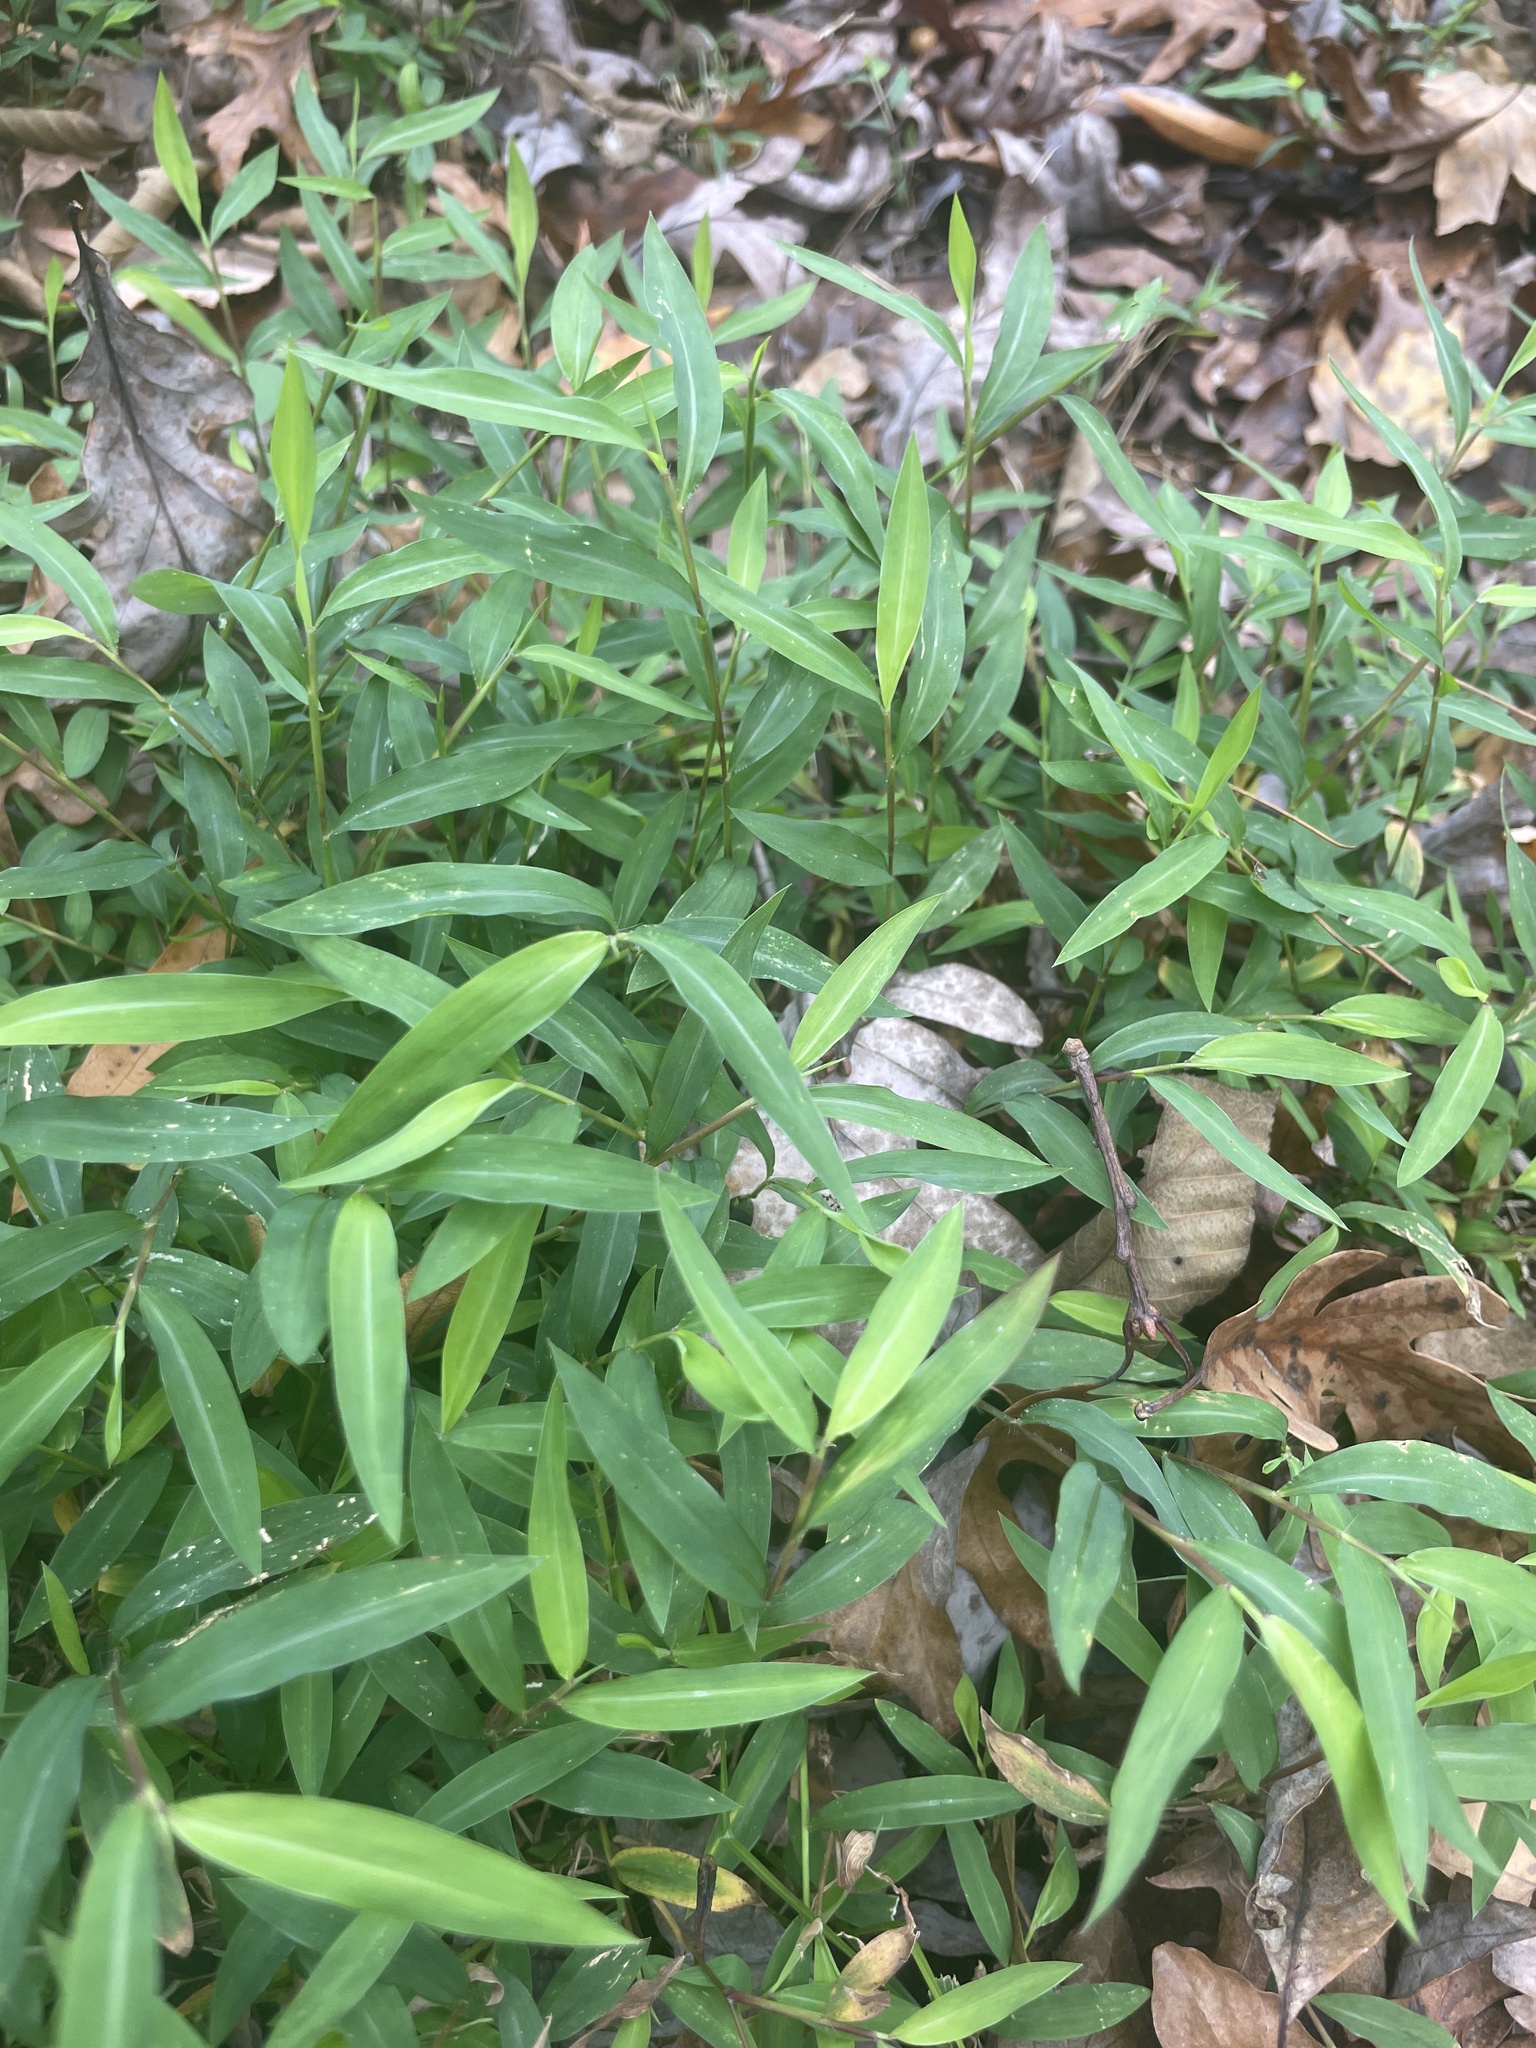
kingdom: Plantae
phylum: Tracheophyta
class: Liliopsida
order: Poales
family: Poaceae
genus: Microstegium
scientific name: Microstegium vimineum
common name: Japanese stiltgrass
